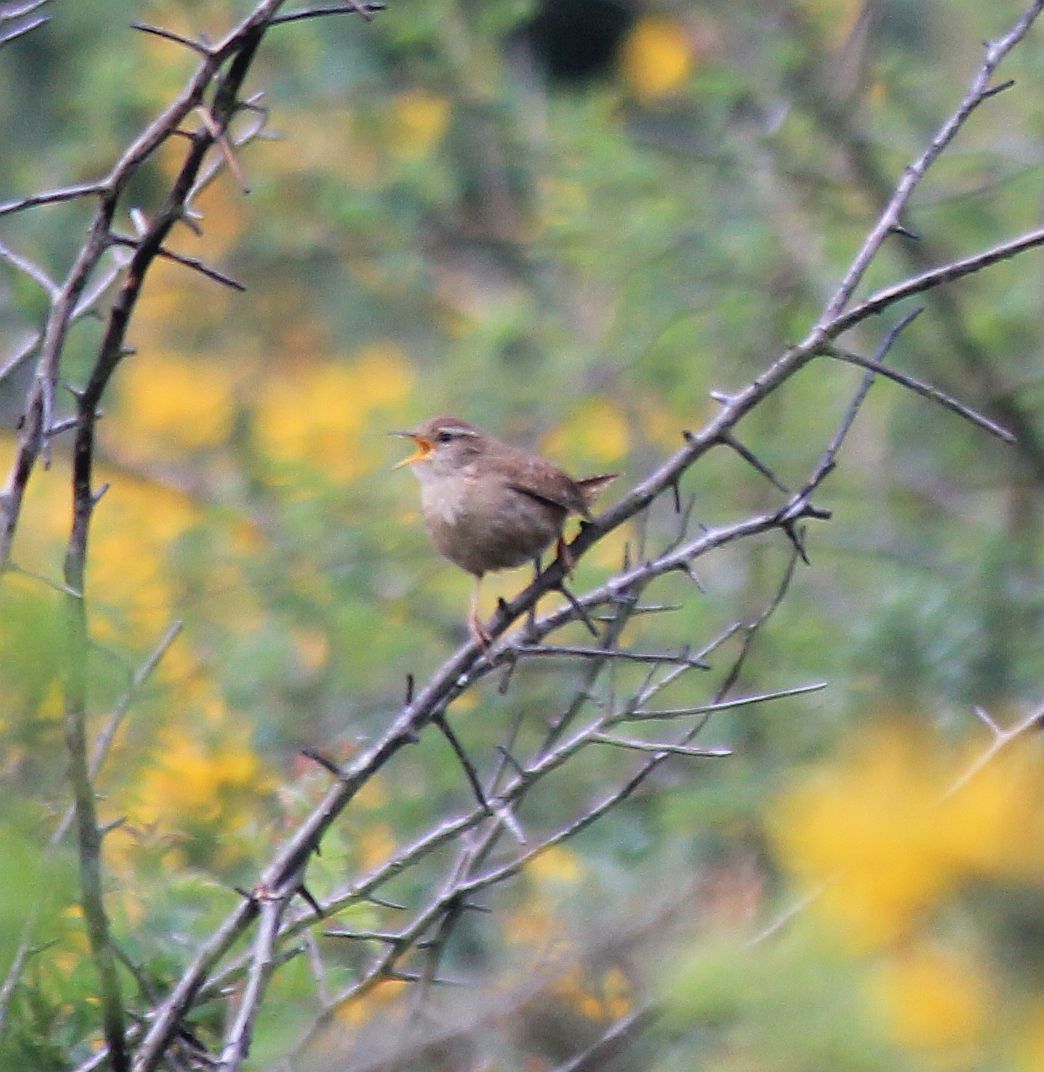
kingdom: Animalia
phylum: Chordata
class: Aves
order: Passeriformes
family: Troglodytidae
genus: Troglodytes
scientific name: Troglodytes troglodytes
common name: Eurasian wren
